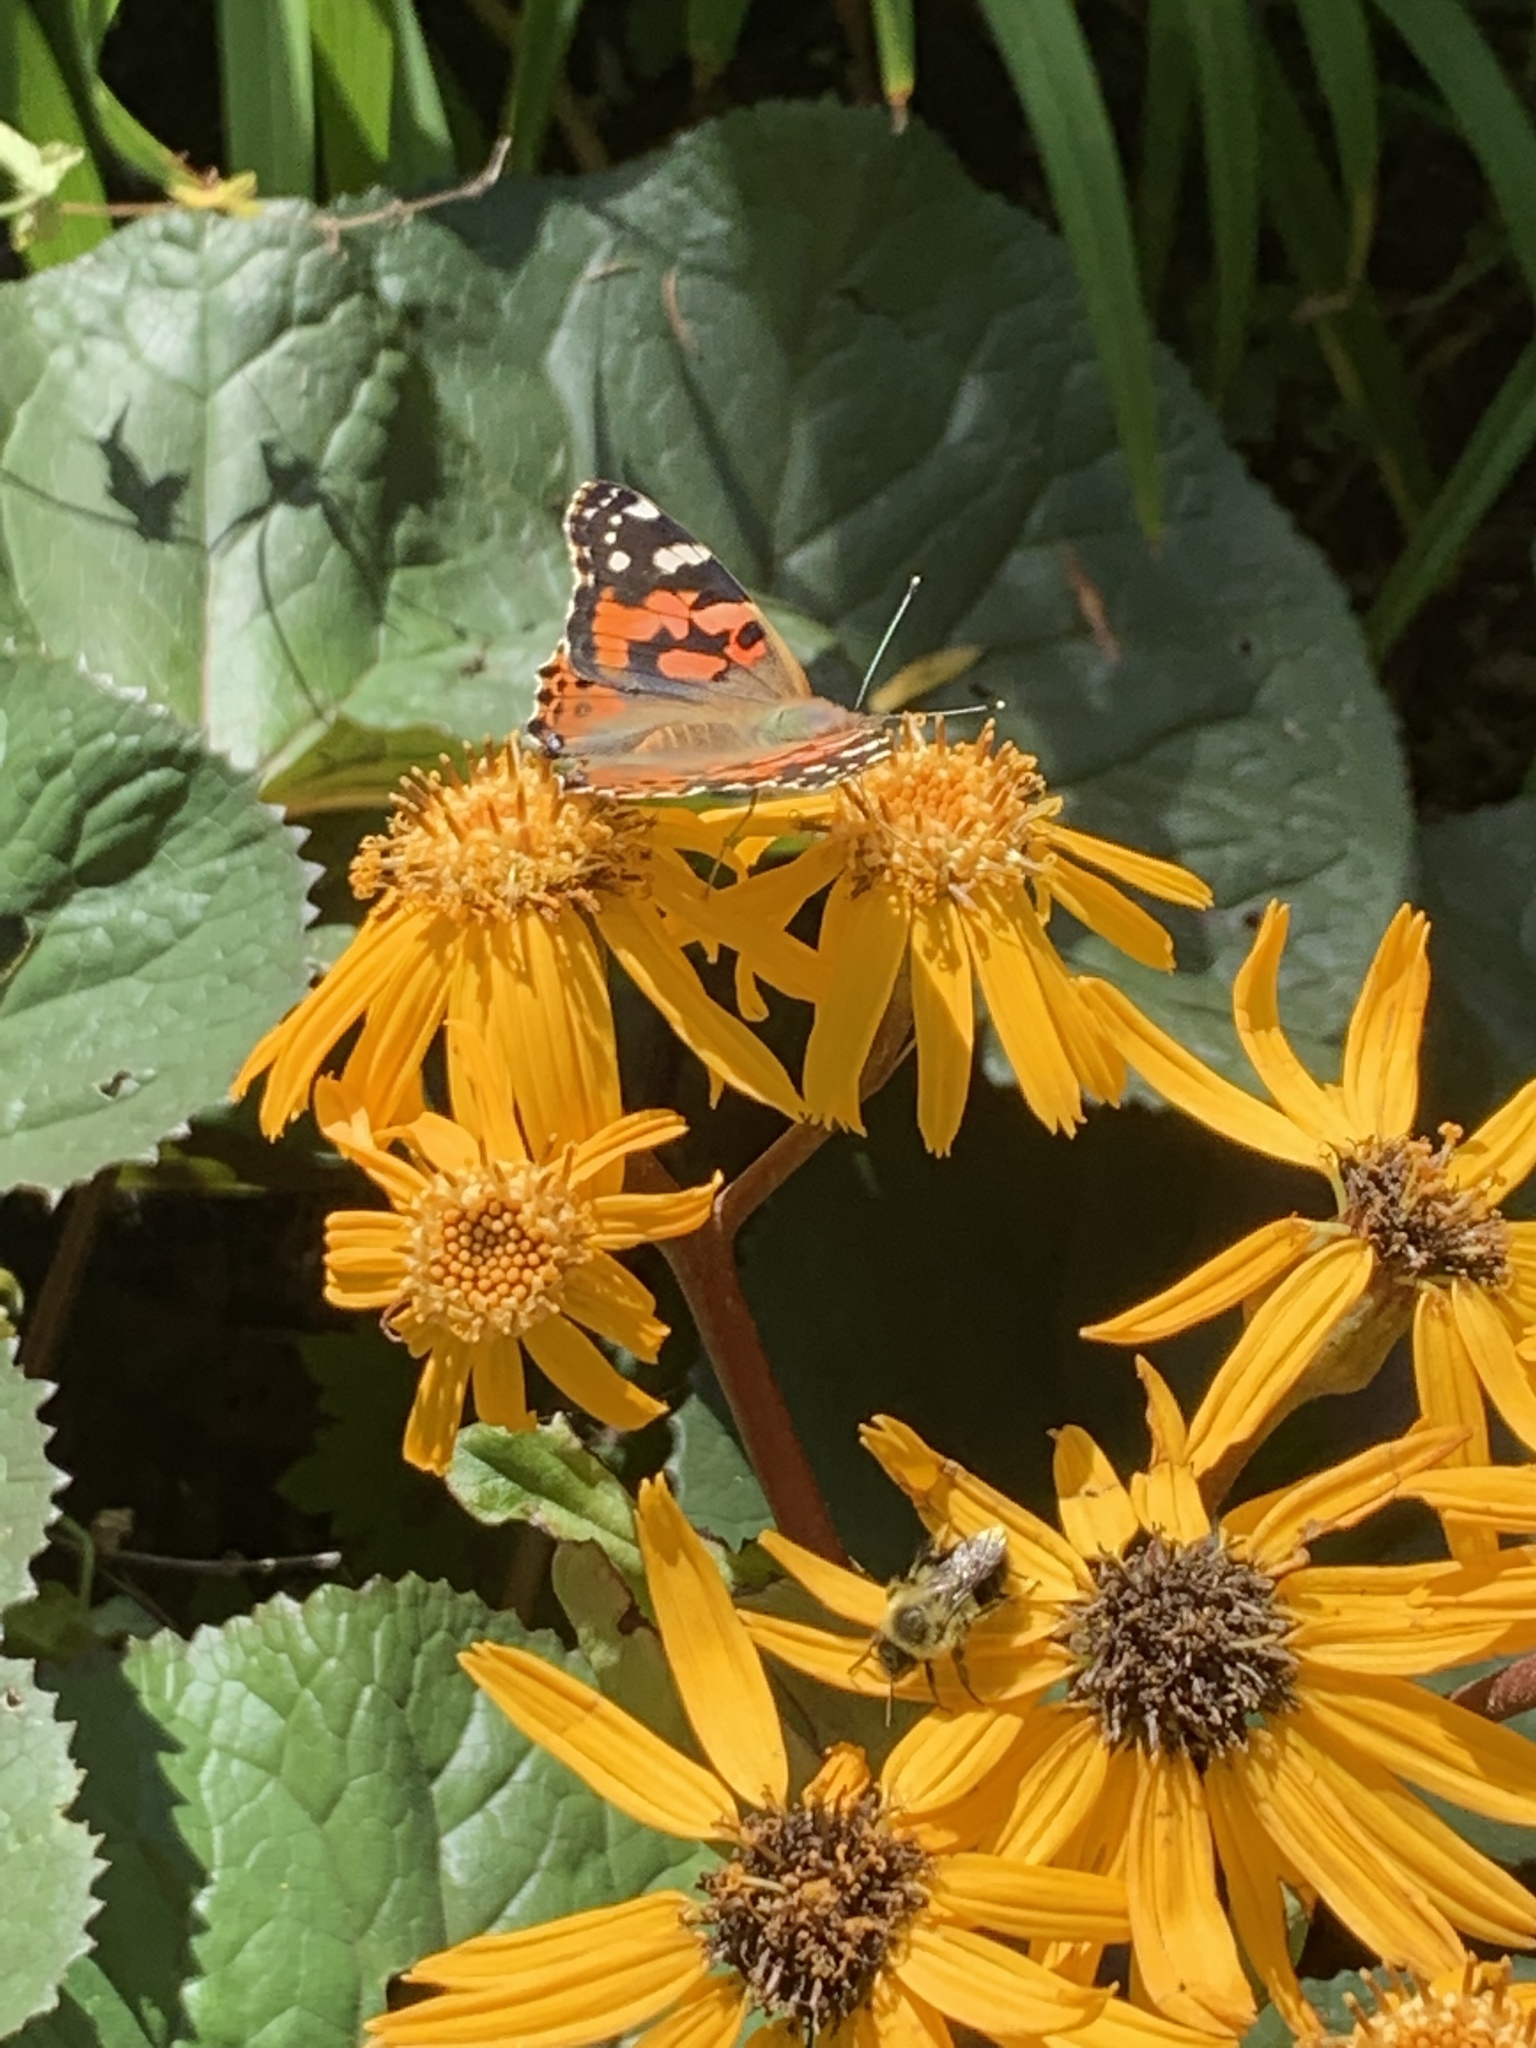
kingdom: Animalia
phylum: Arthropoda
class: Insecta
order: Lepidoptera
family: Nymphalidae
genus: Vanessa
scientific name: Vanessa cardui
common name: Painted lady
